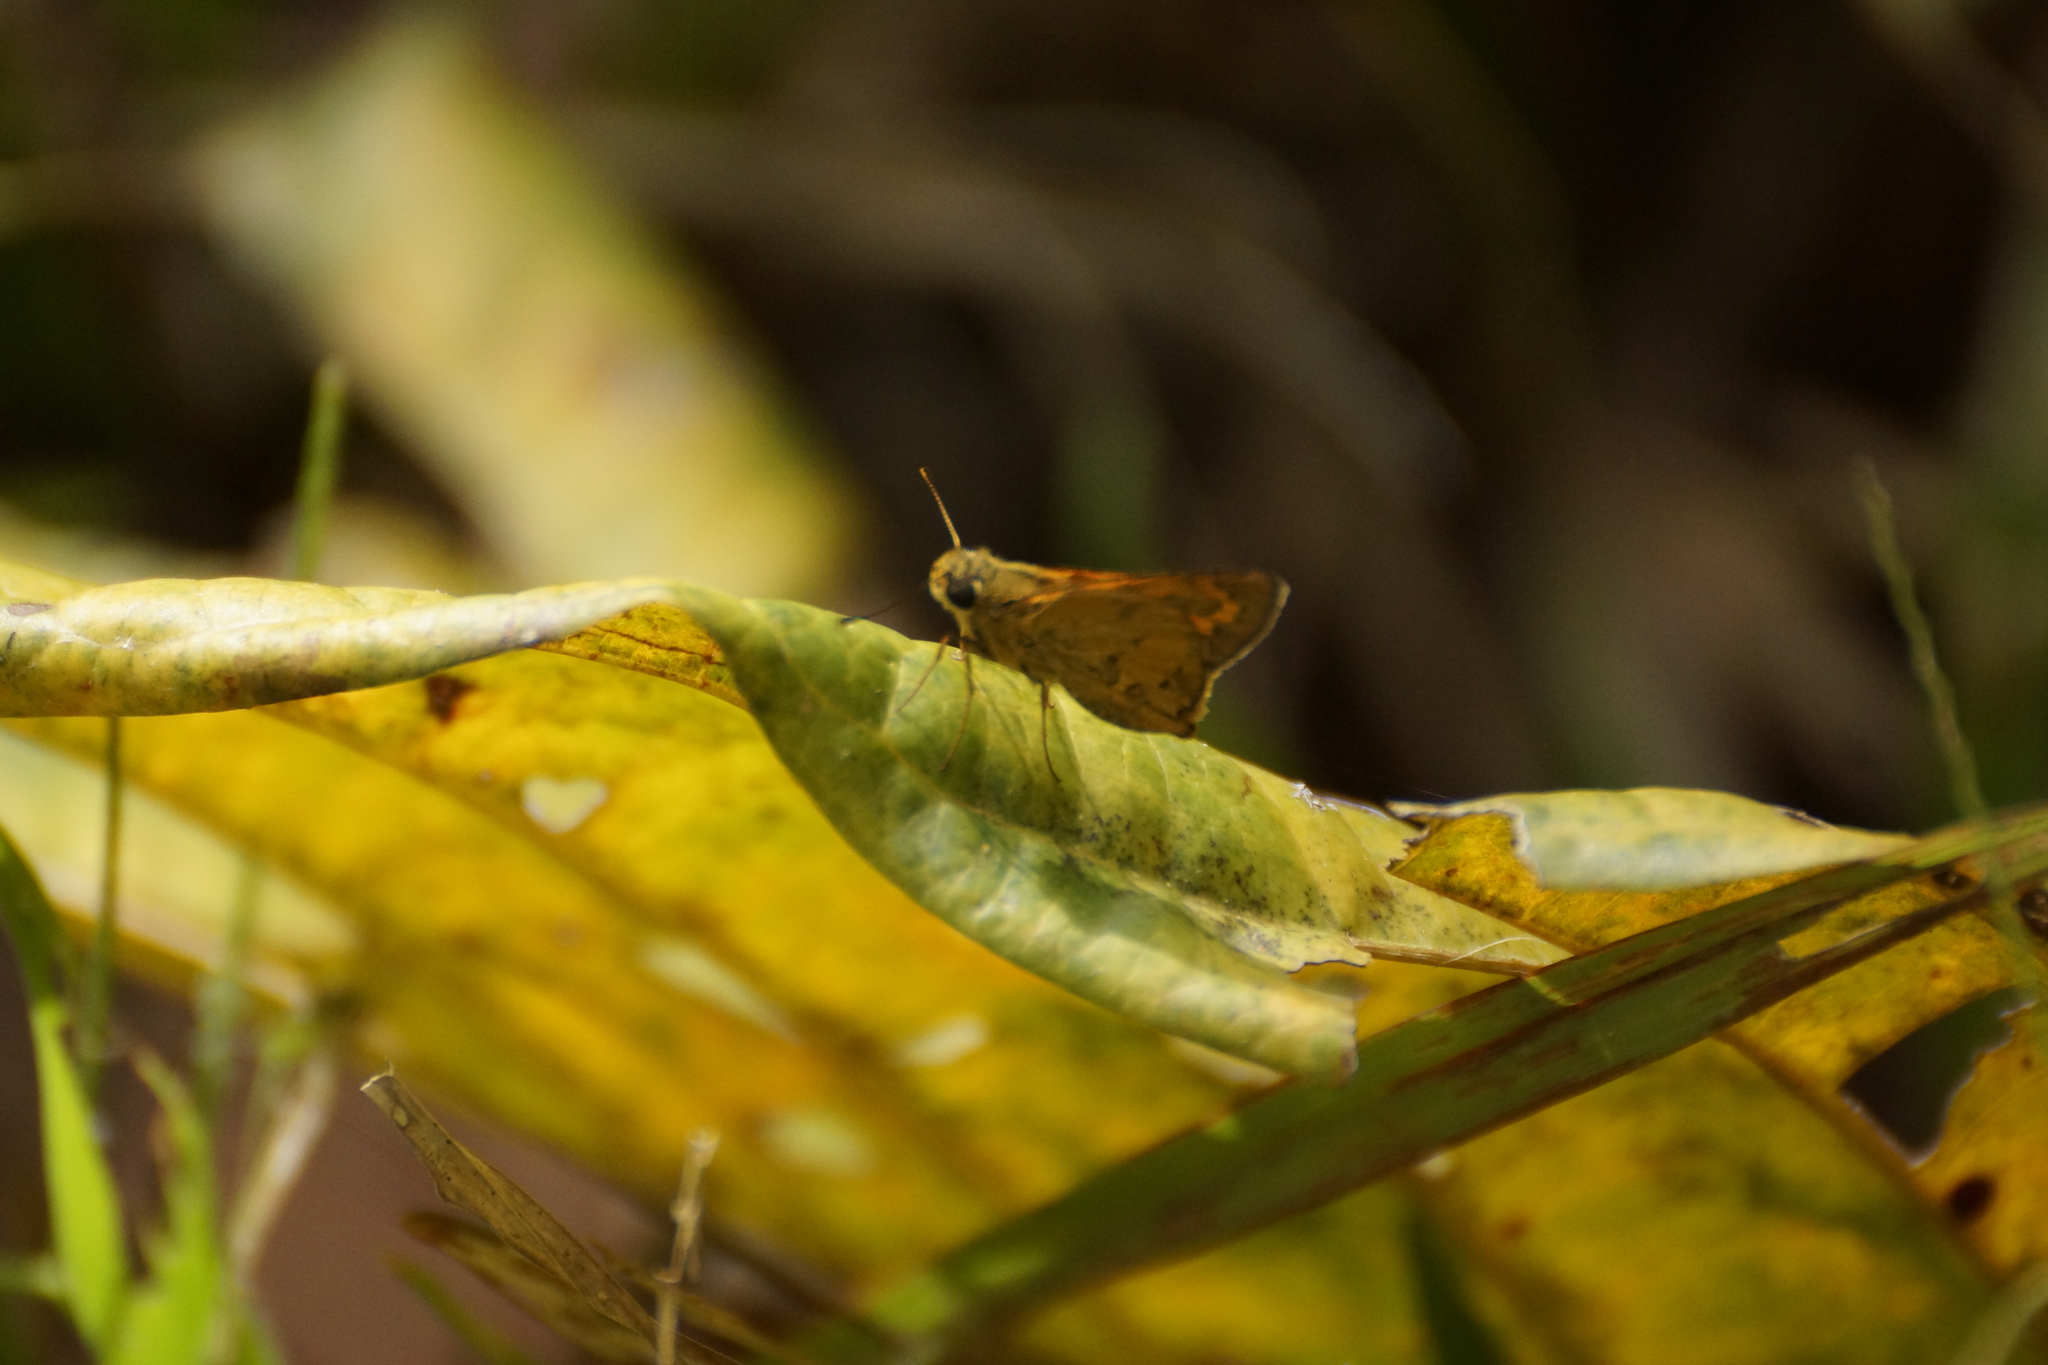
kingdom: Animalia
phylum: Arthropoda
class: Insecta
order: Lepidoptera
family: Hesperiidae
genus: Telicota
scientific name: Telicota paceka
